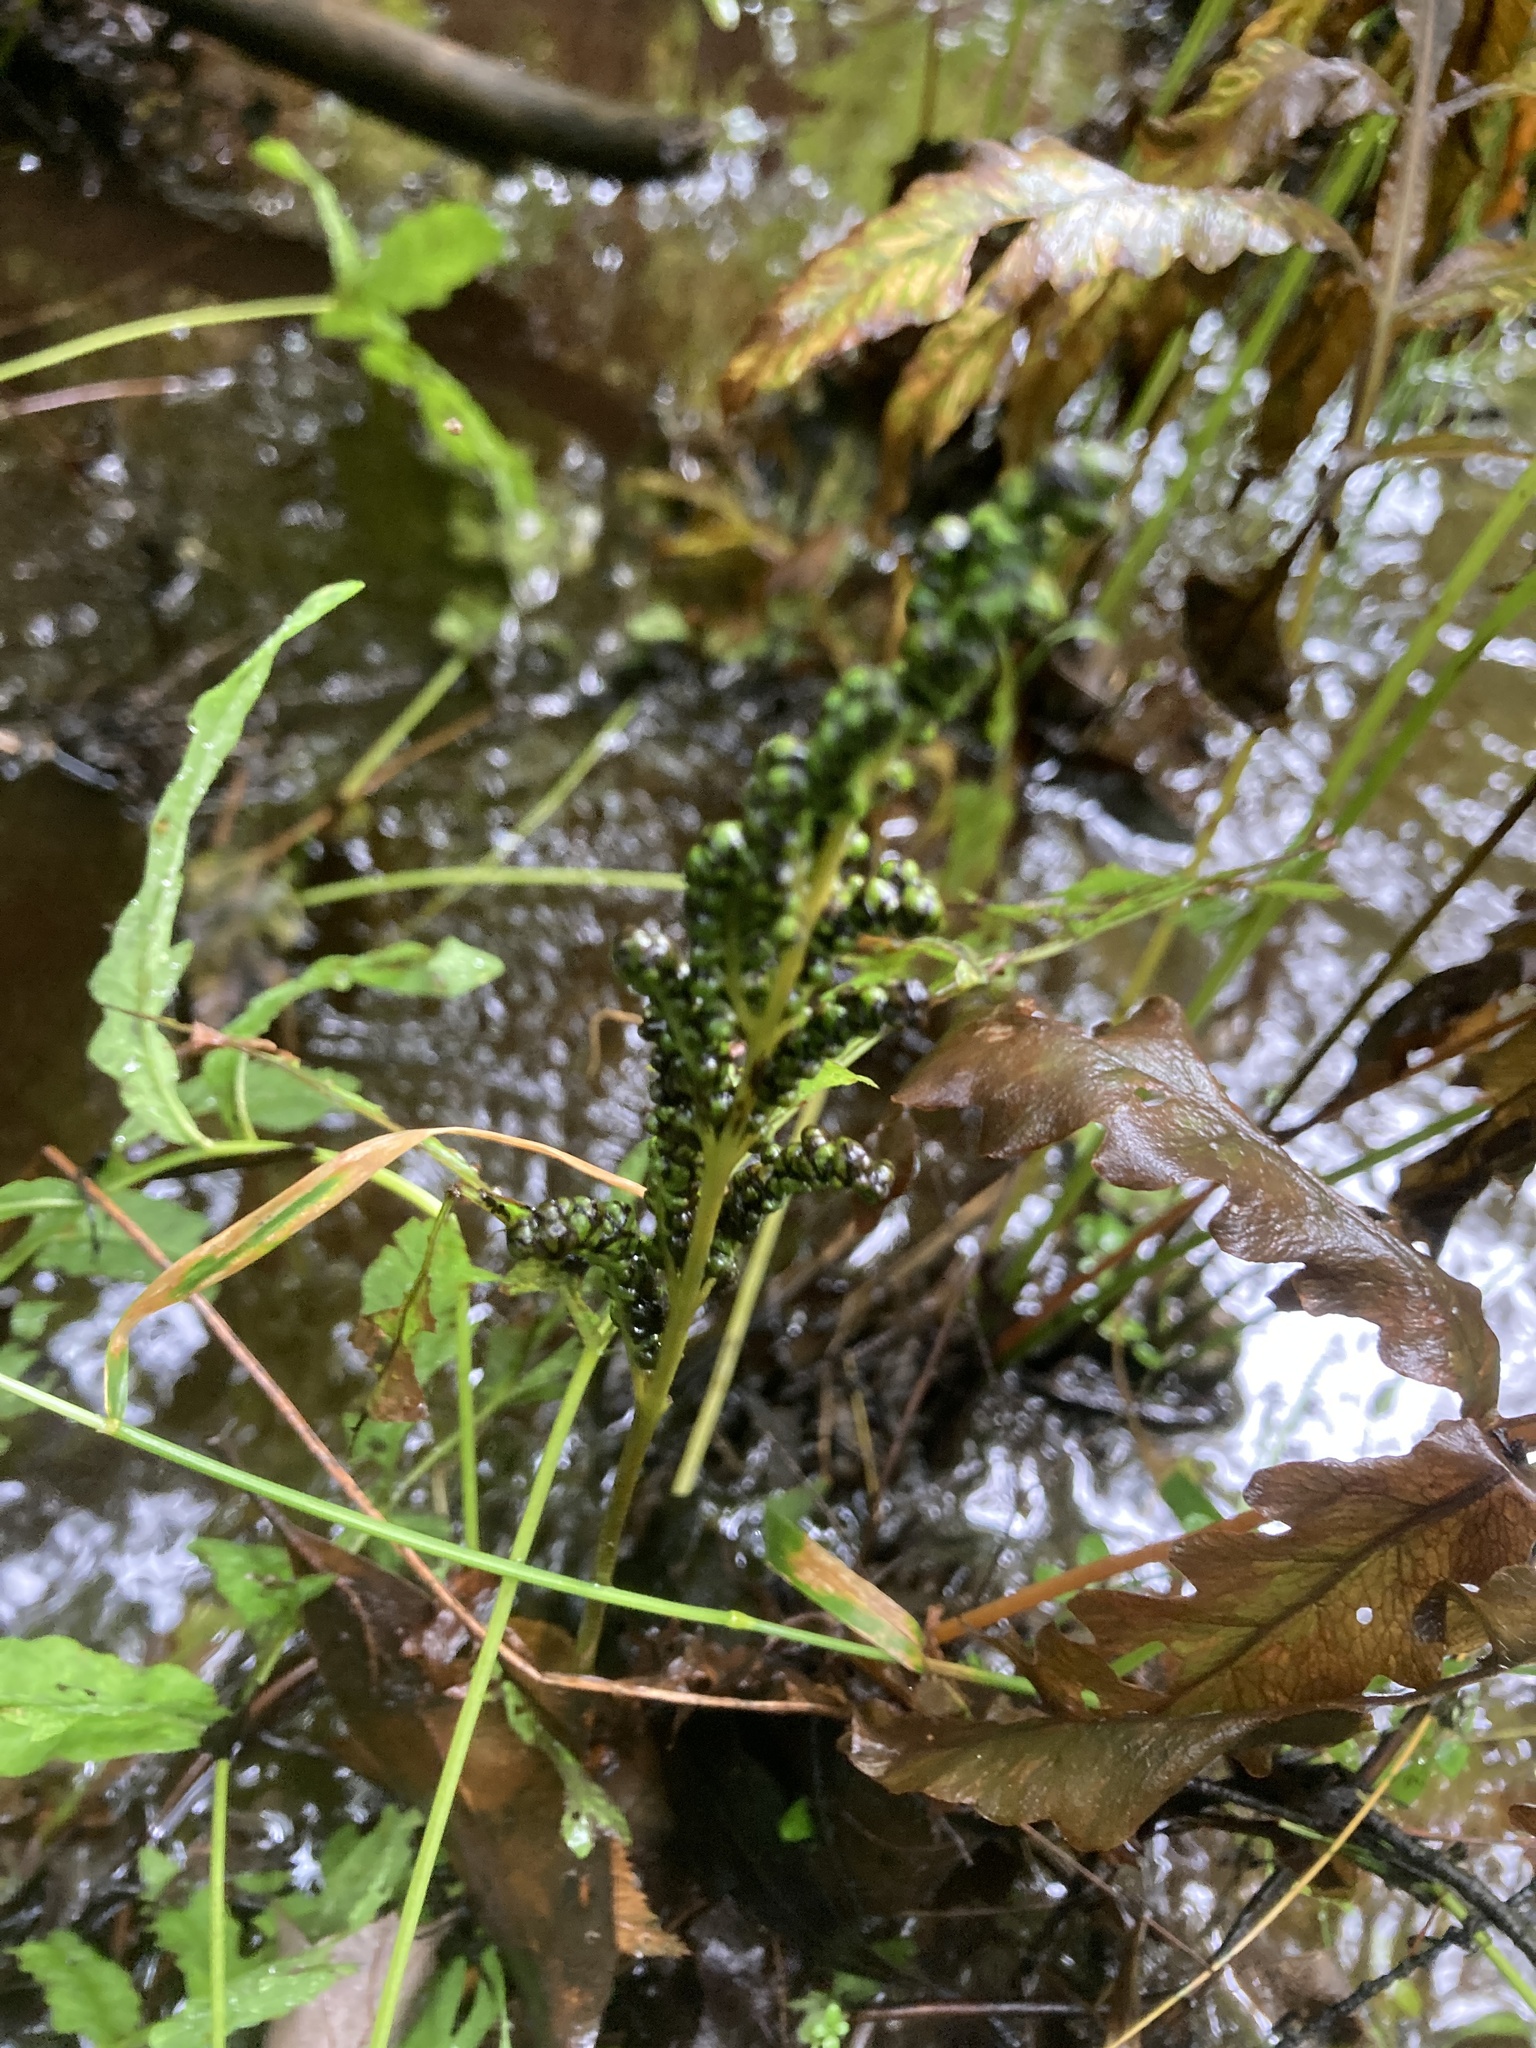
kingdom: Plantae
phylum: Tracheophyta
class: Polypodiopsida
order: Polypodiales
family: Onocleaceae
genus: Onoclea
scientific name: Onoclea sensibilis
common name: Sensitive fern
